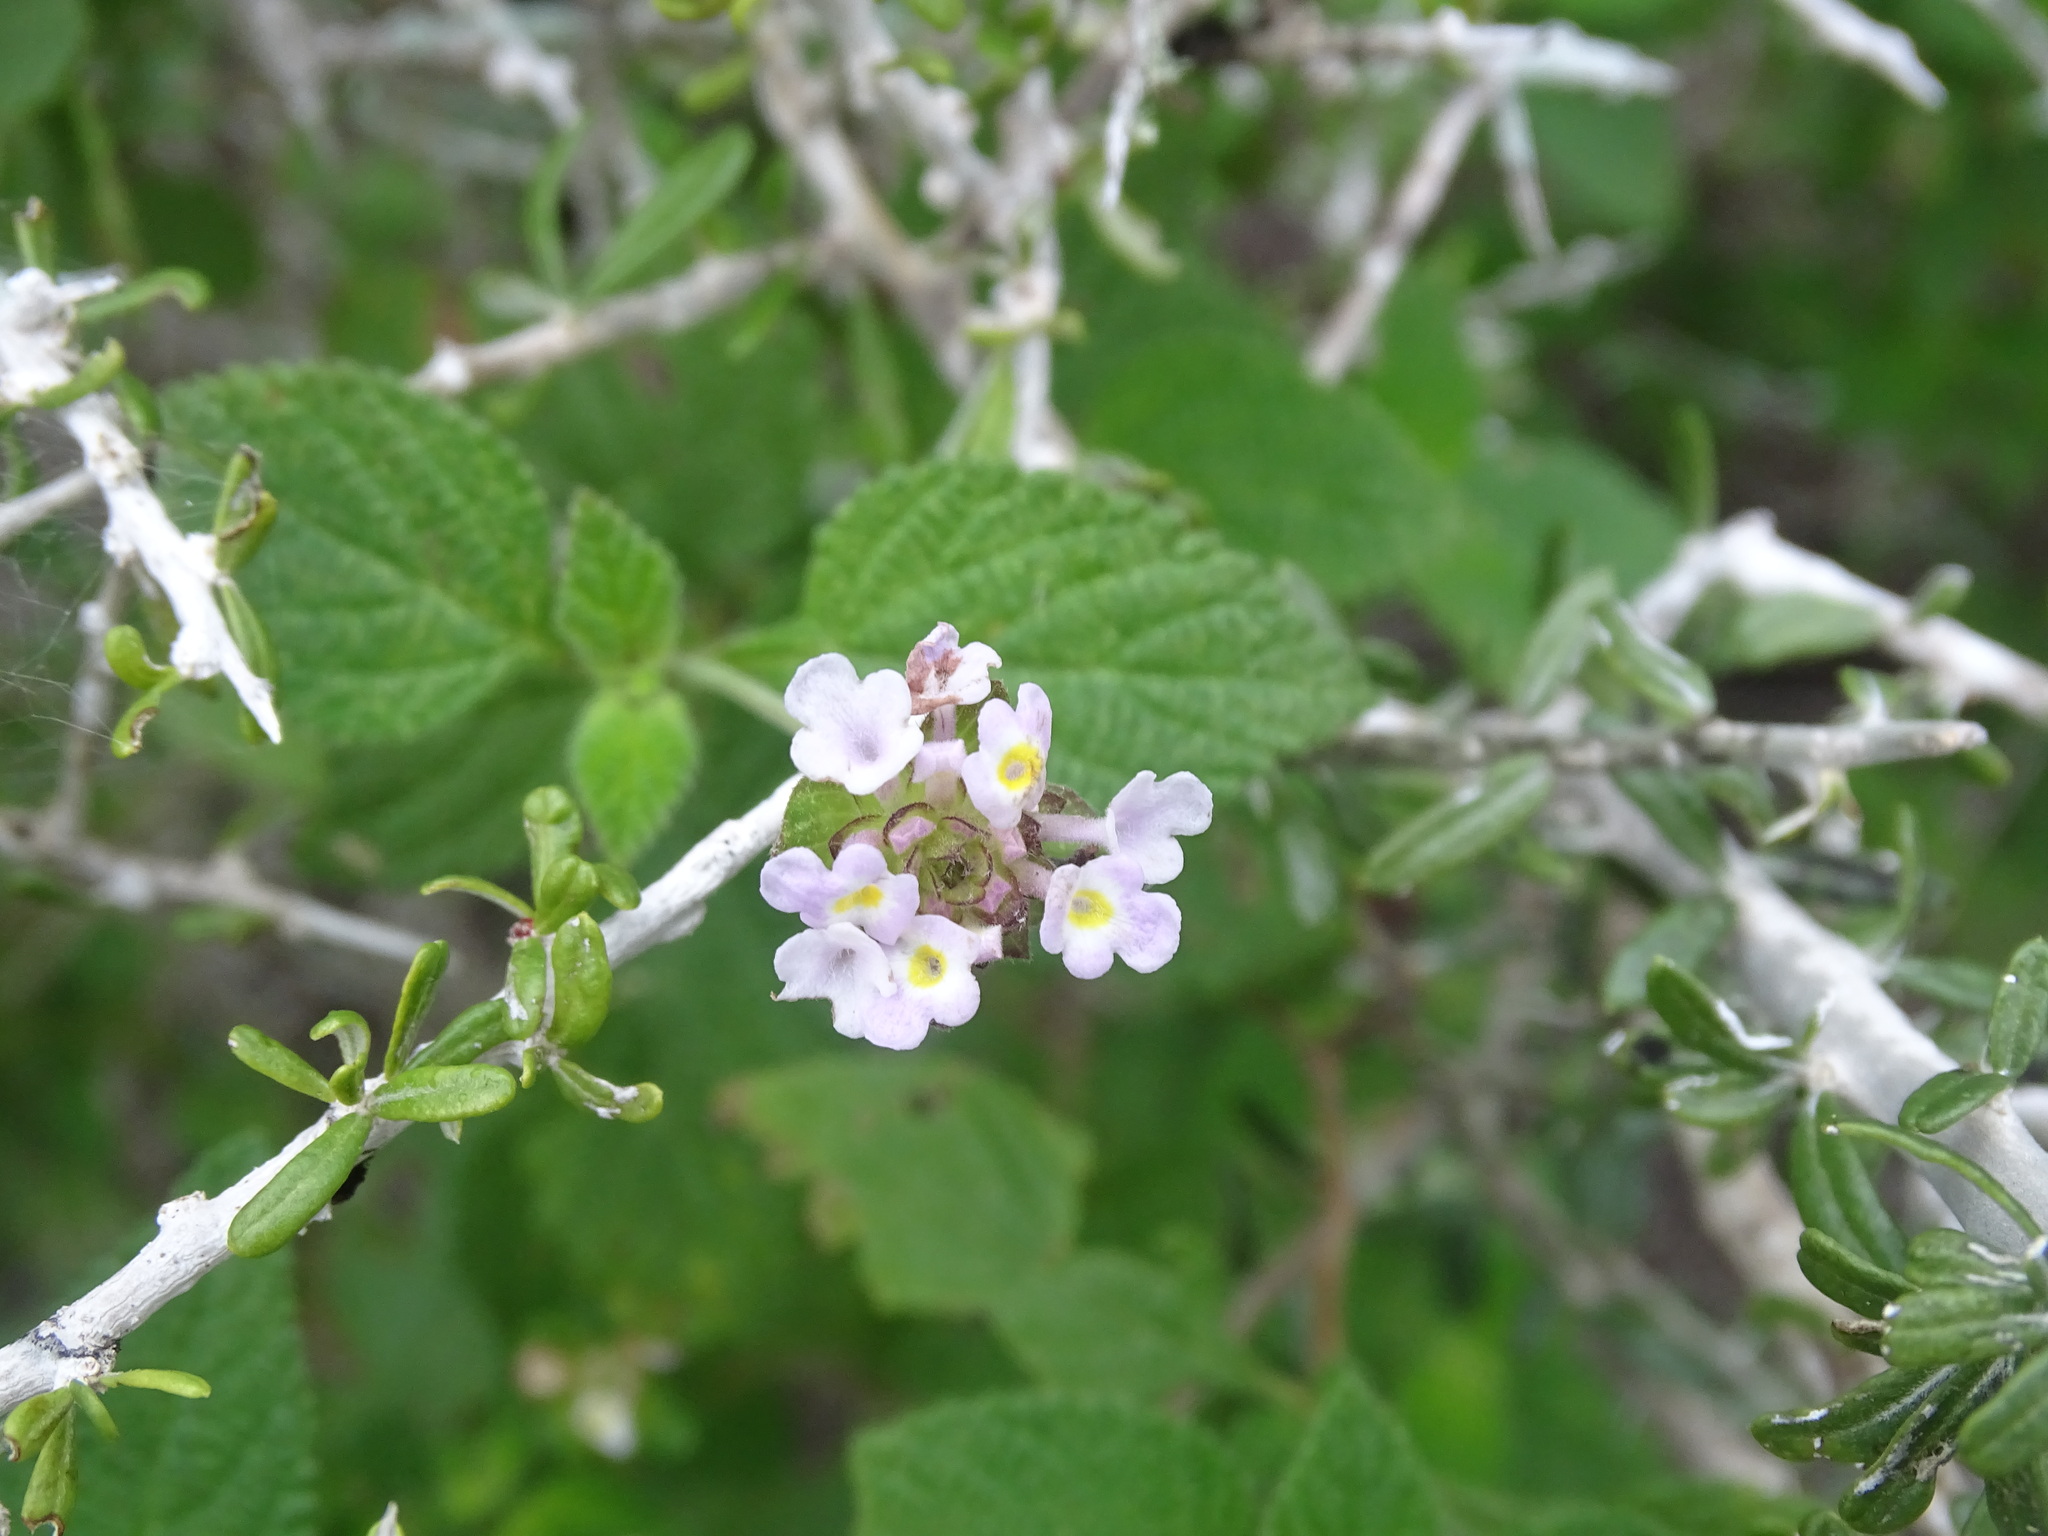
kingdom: Plantae
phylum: Tracheophyta
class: Magnoliopsida
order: Lamiales
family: Verbenaceae
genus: Lantana
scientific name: Lantana velutina
